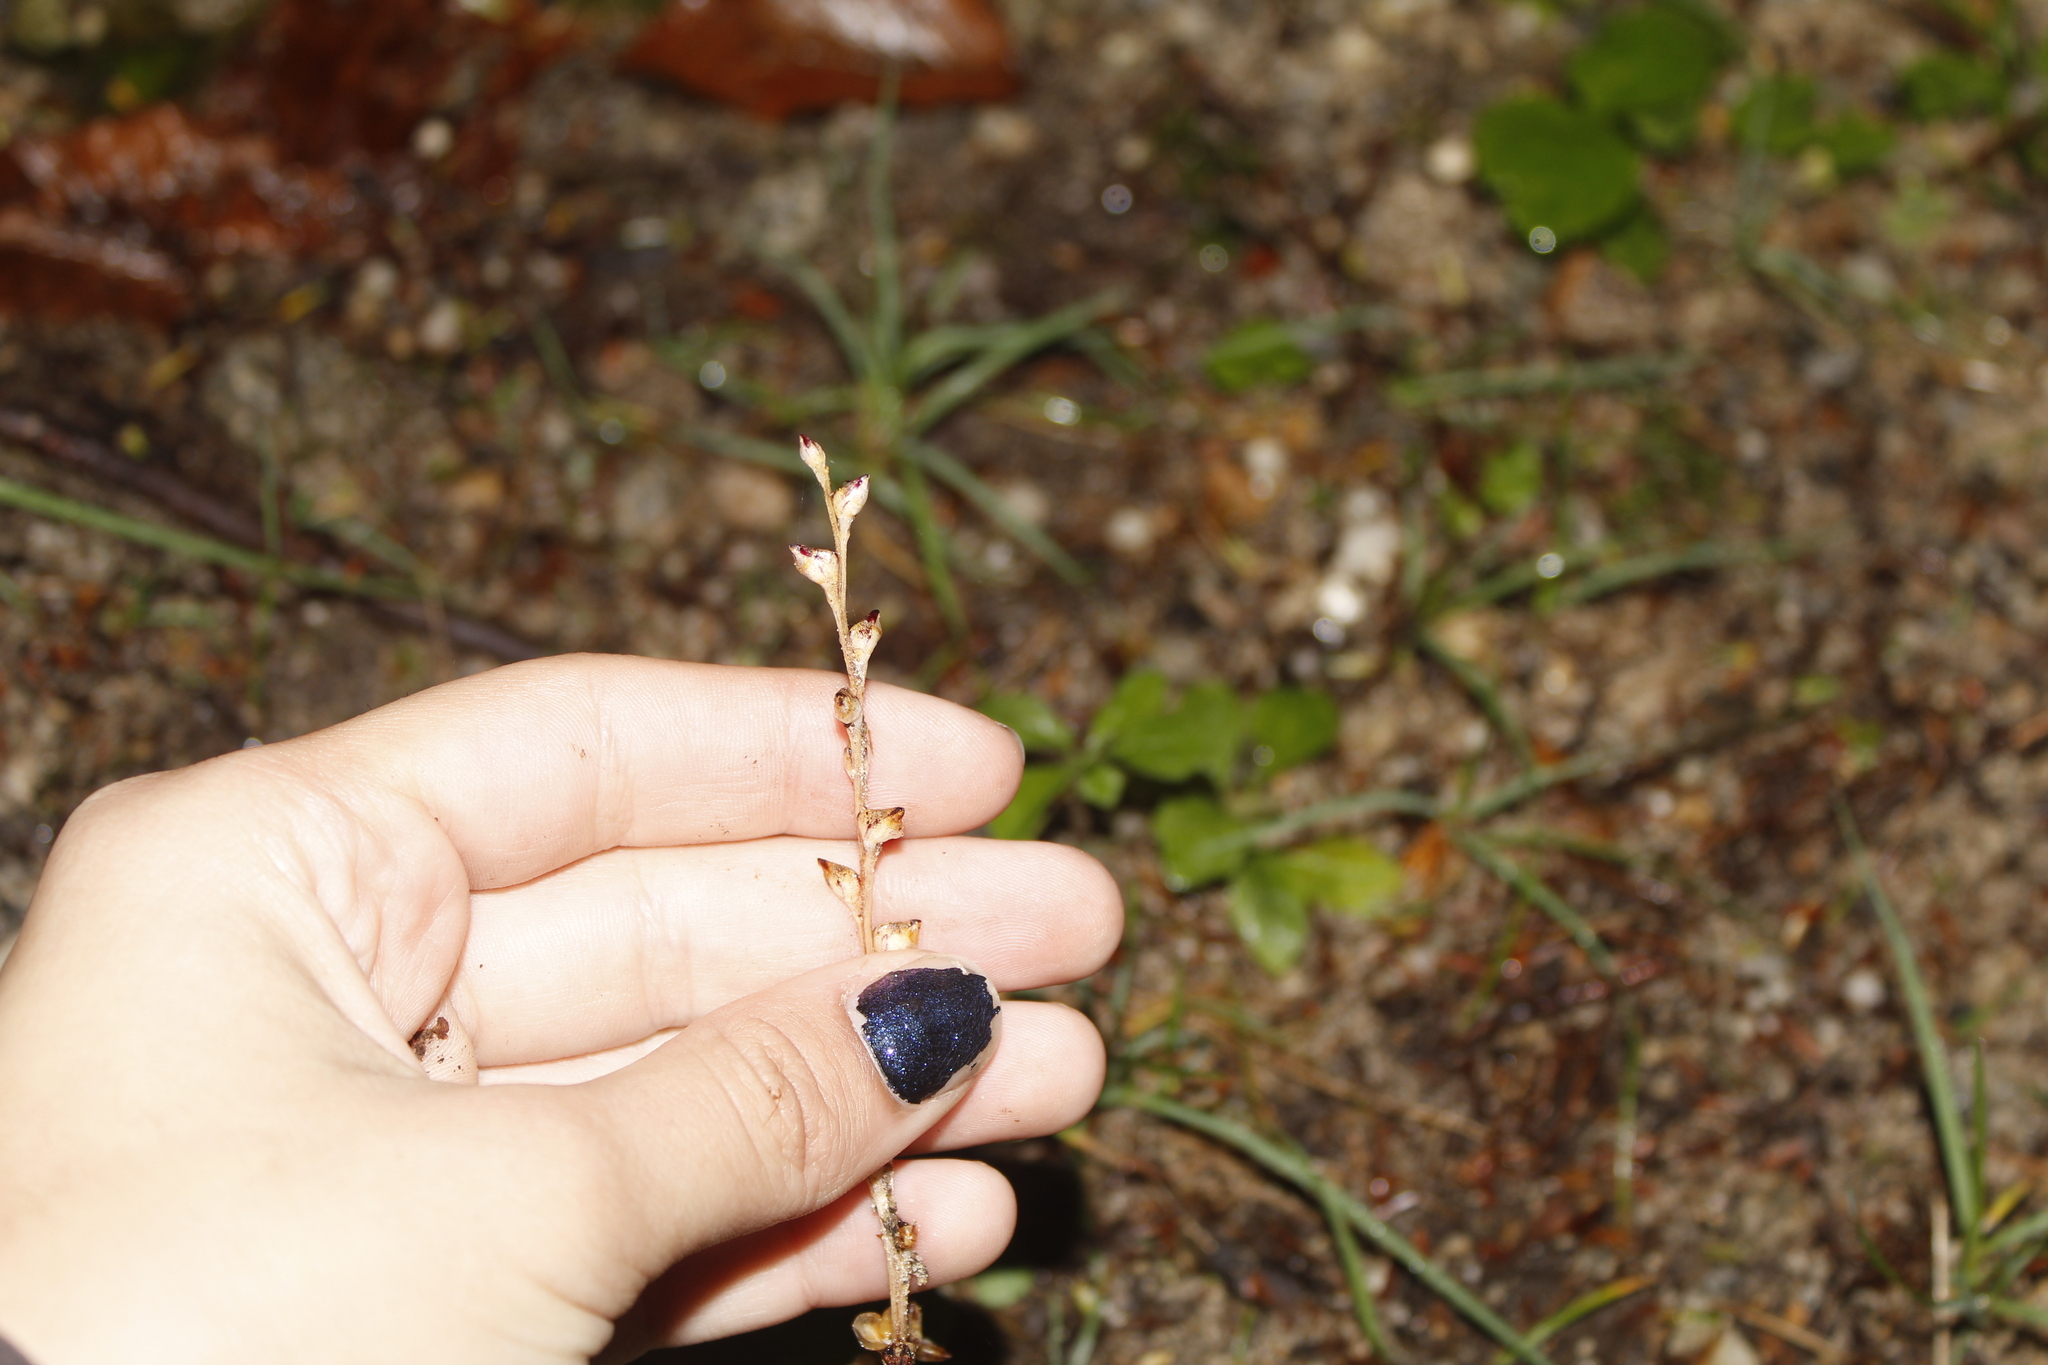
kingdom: Plantae
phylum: Tracheophyta
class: Magnoliopsida
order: Lamiales
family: Orobanchaceae
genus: Epifagus
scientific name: Epifagus virginiana
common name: Beechdrops
